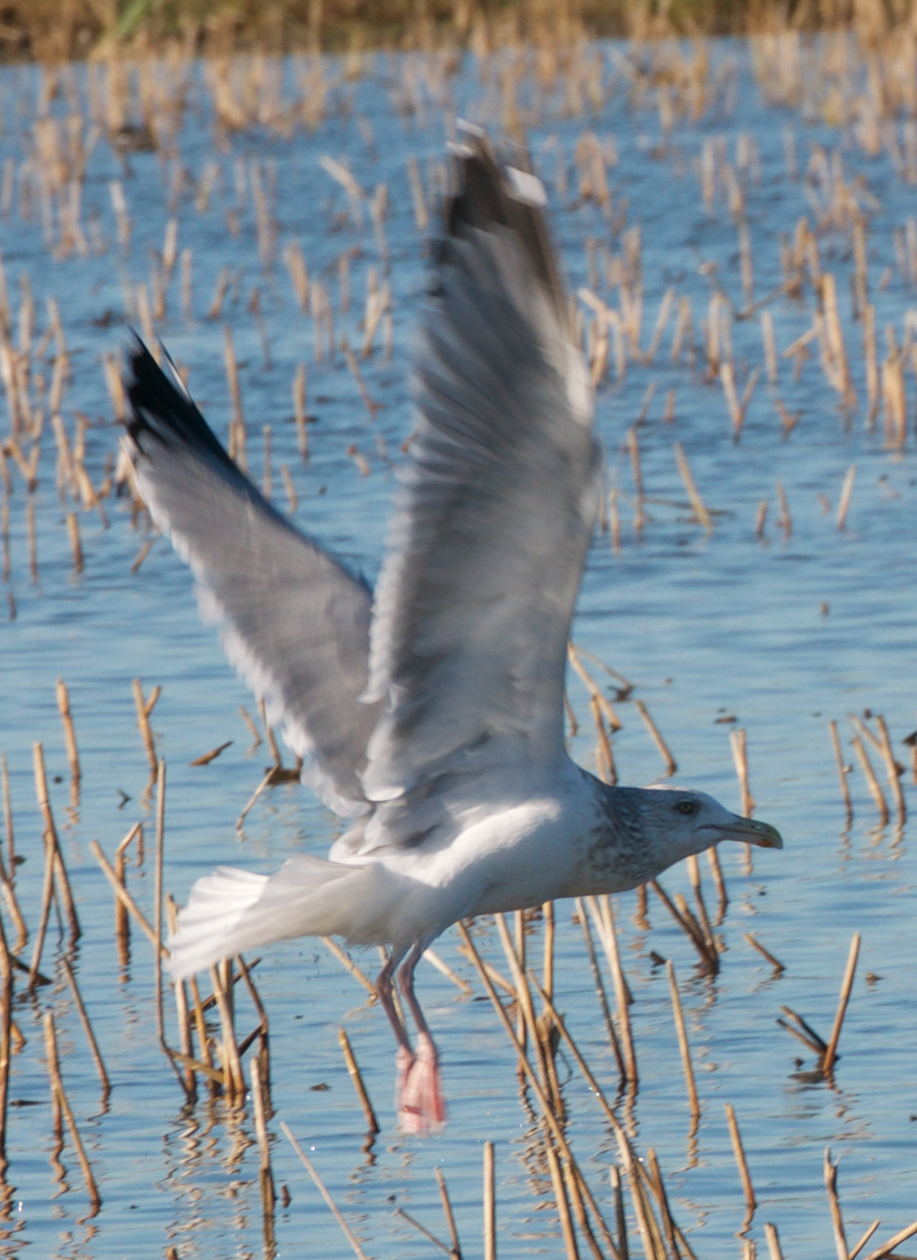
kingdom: Animalia
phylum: Chordata
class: Aves
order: Charadriiformes
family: Laridae
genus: Larus
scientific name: Larus argentatus
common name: Herring gull
